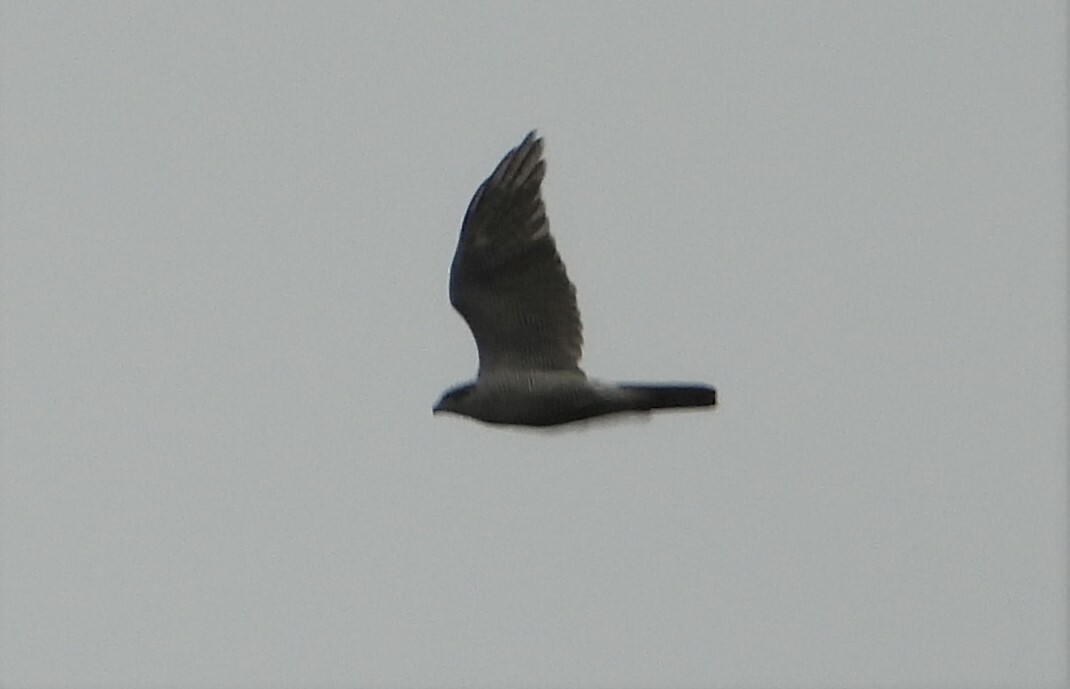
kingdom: Animalia
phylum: Chordata
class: Aves
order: Accipitriformes
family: Accipitridae
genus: Accipiter
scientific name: Accipiter gentilis
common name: Northern goshawk
